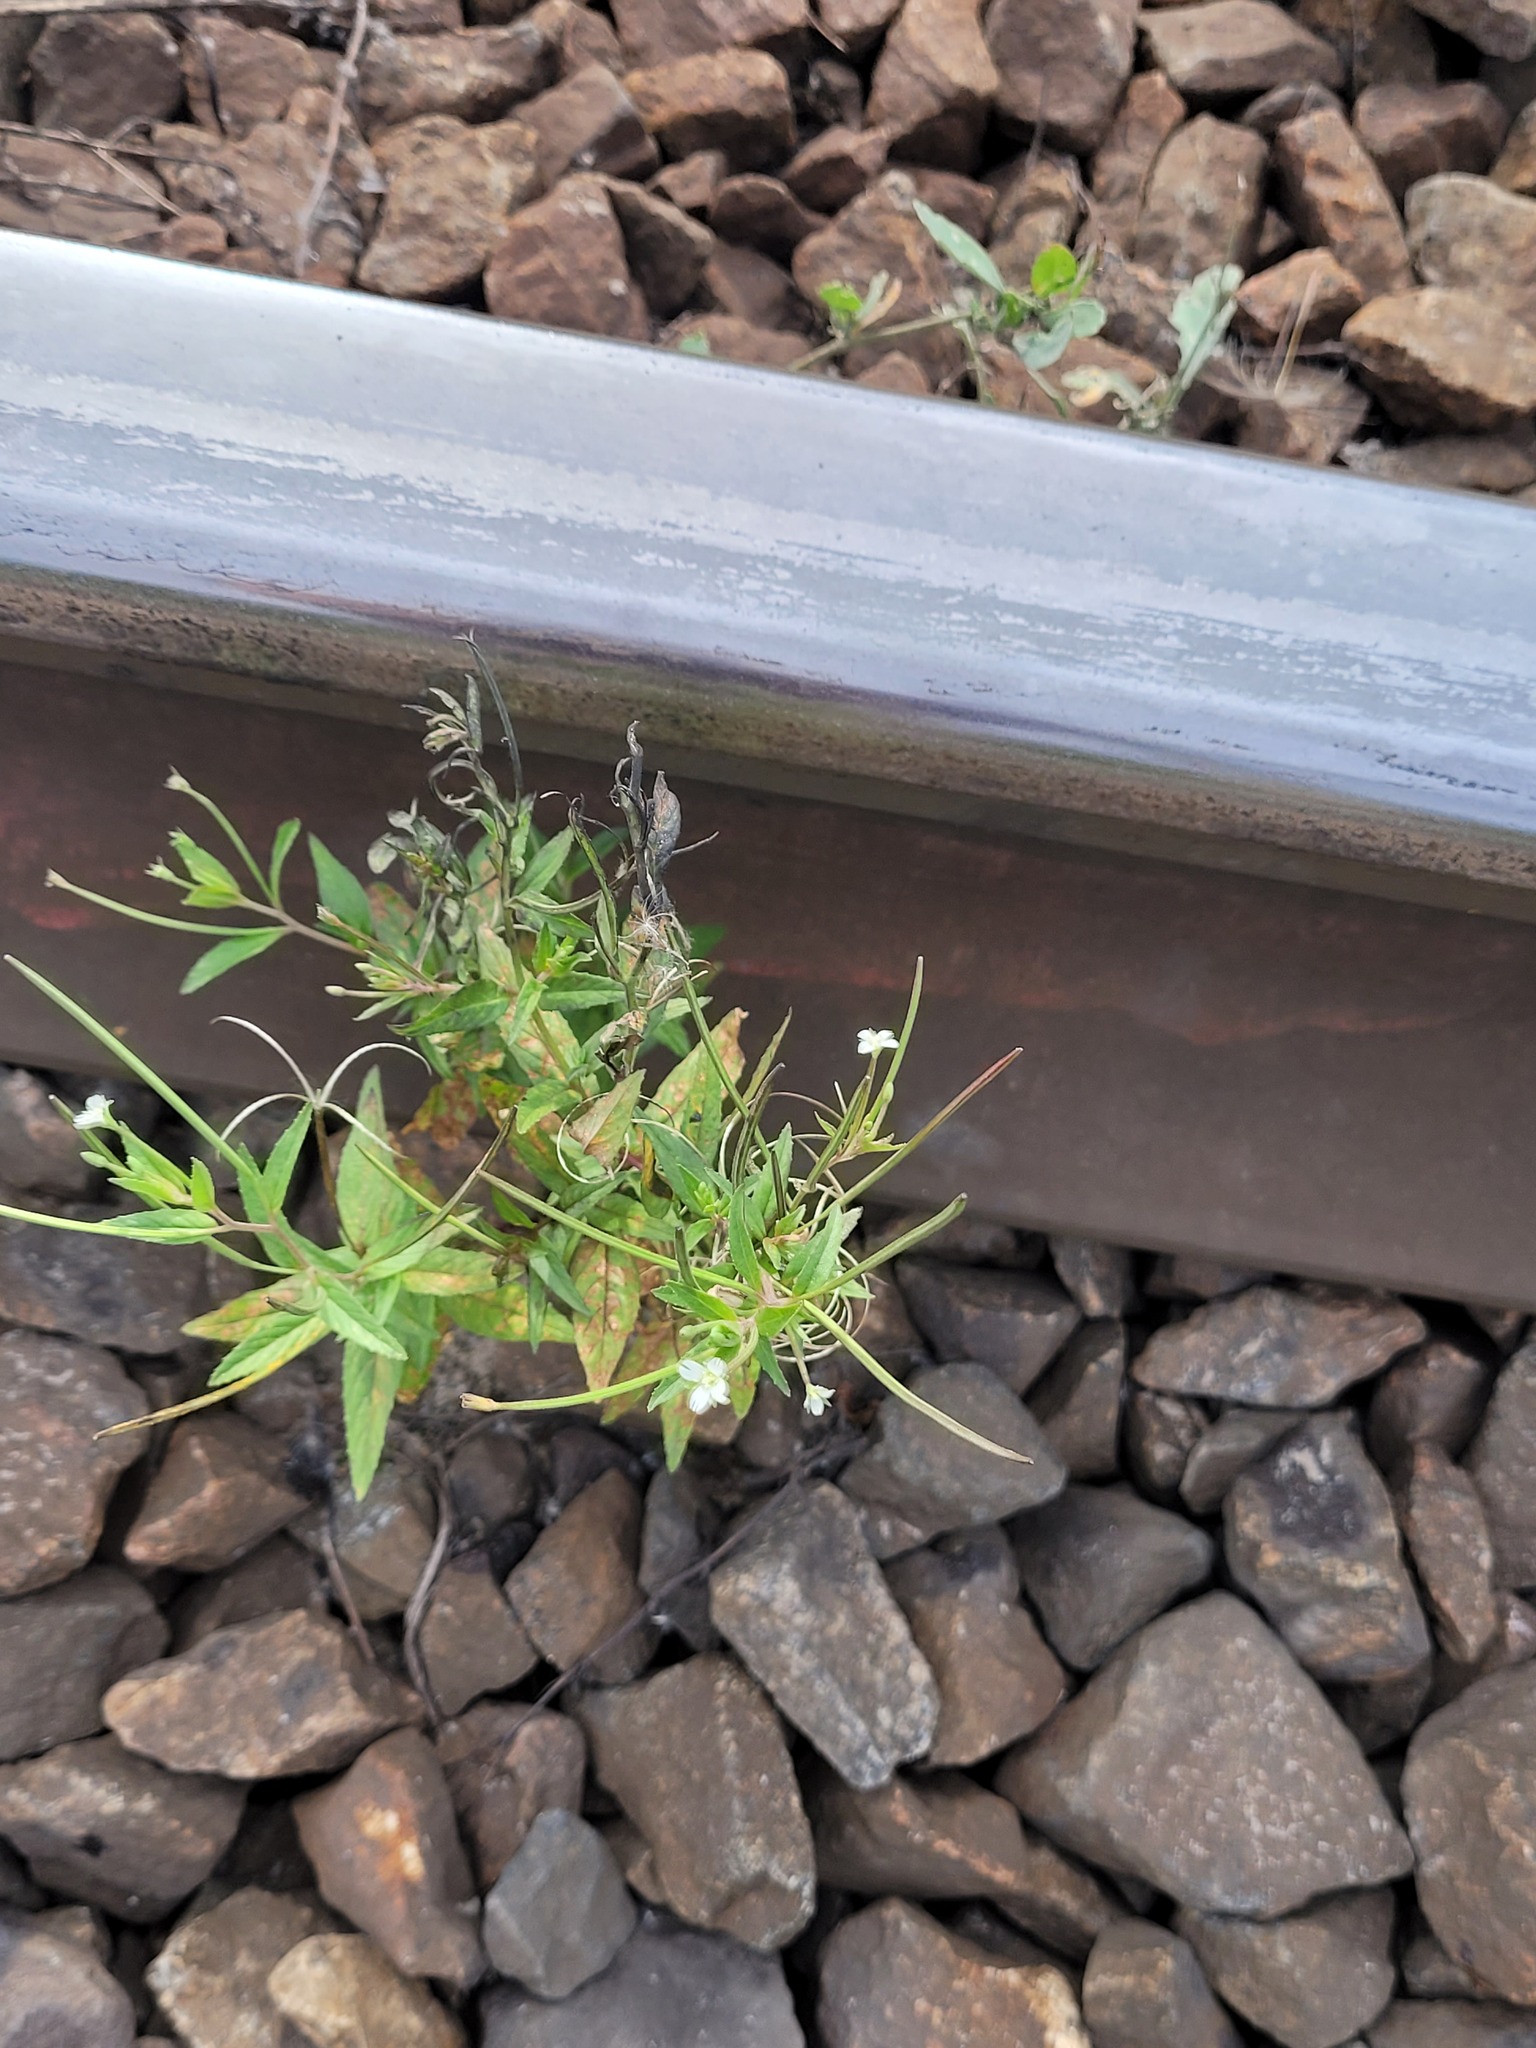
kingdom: Plantae
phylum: Tracheophyta
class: Magnoliopsida
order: Myrtales
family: Onagraceae
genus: Epilobium
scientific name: Epilobium pseudorubescens
